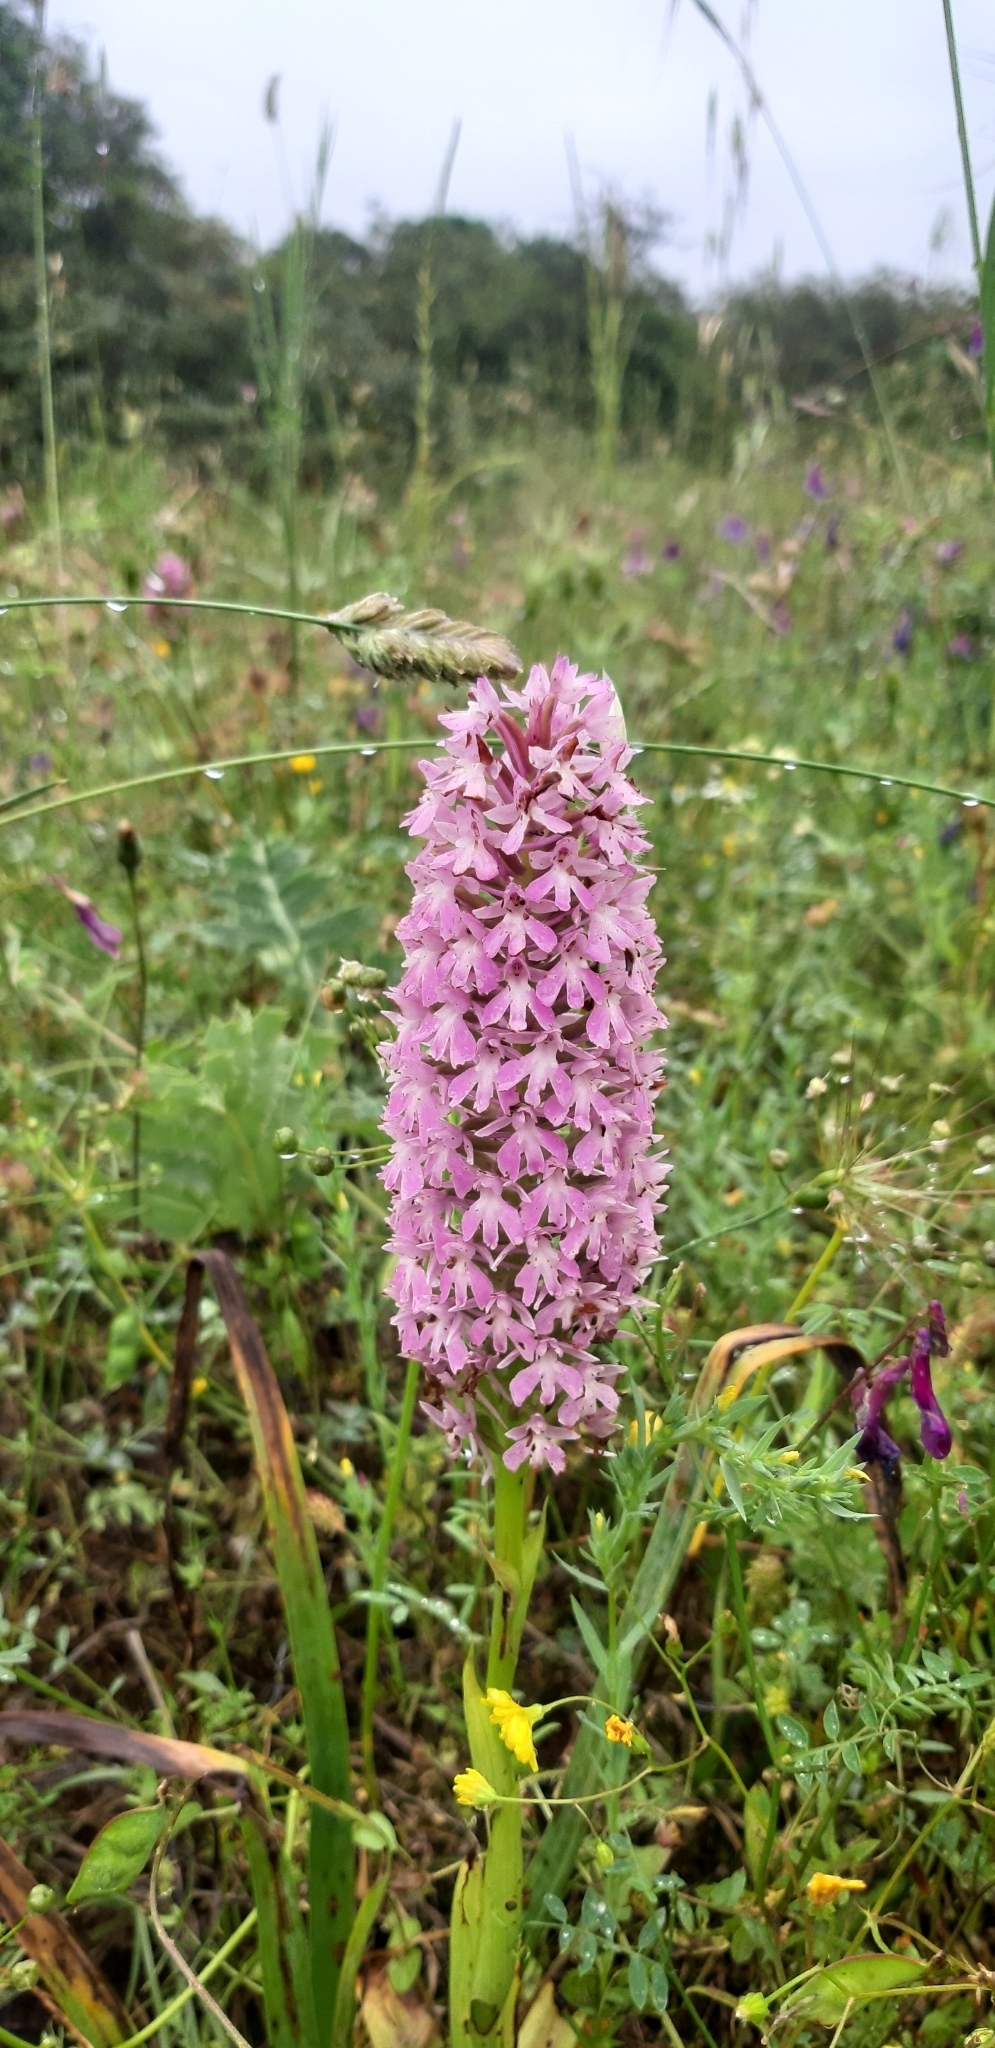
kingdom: Plantae
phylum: Tracheophyta
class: Liliopsida
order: Asparagales
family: Orchidaceae
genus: Anacamptis
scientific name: Anacamptis pyramidalis
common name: Pyramidal orchid
